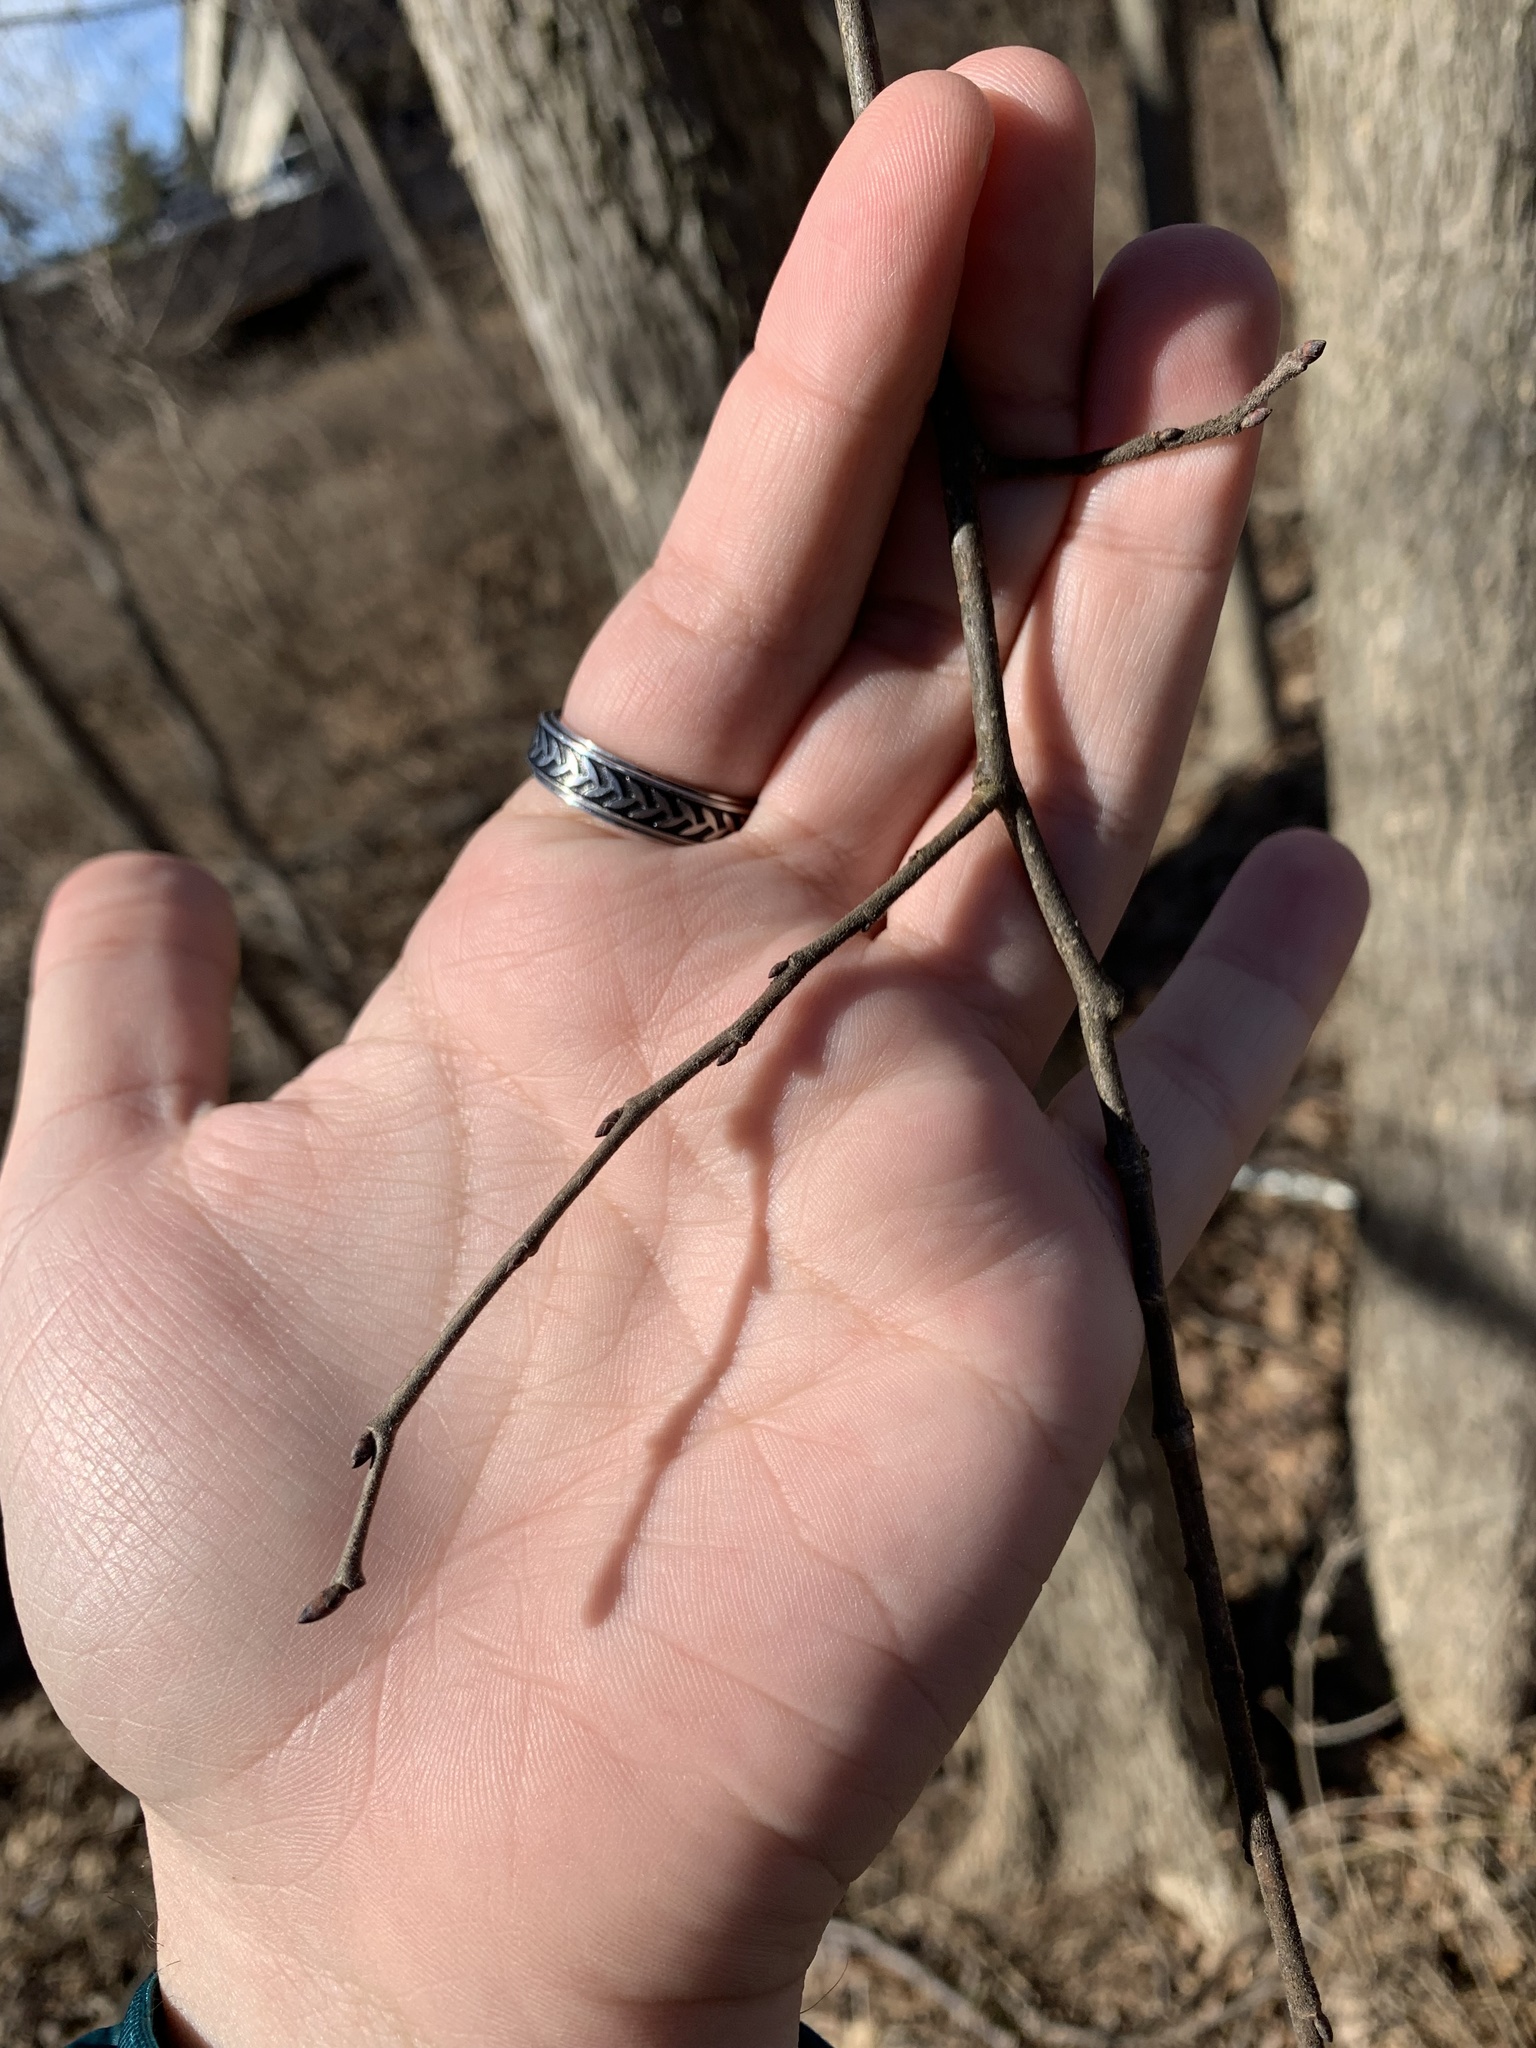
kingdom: Plantae
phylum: Tracheophyta
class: Magnoliopsida
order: Rosales
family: Ulmaceae
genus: Ulmus
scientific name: Ulmus americana
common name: American elm
